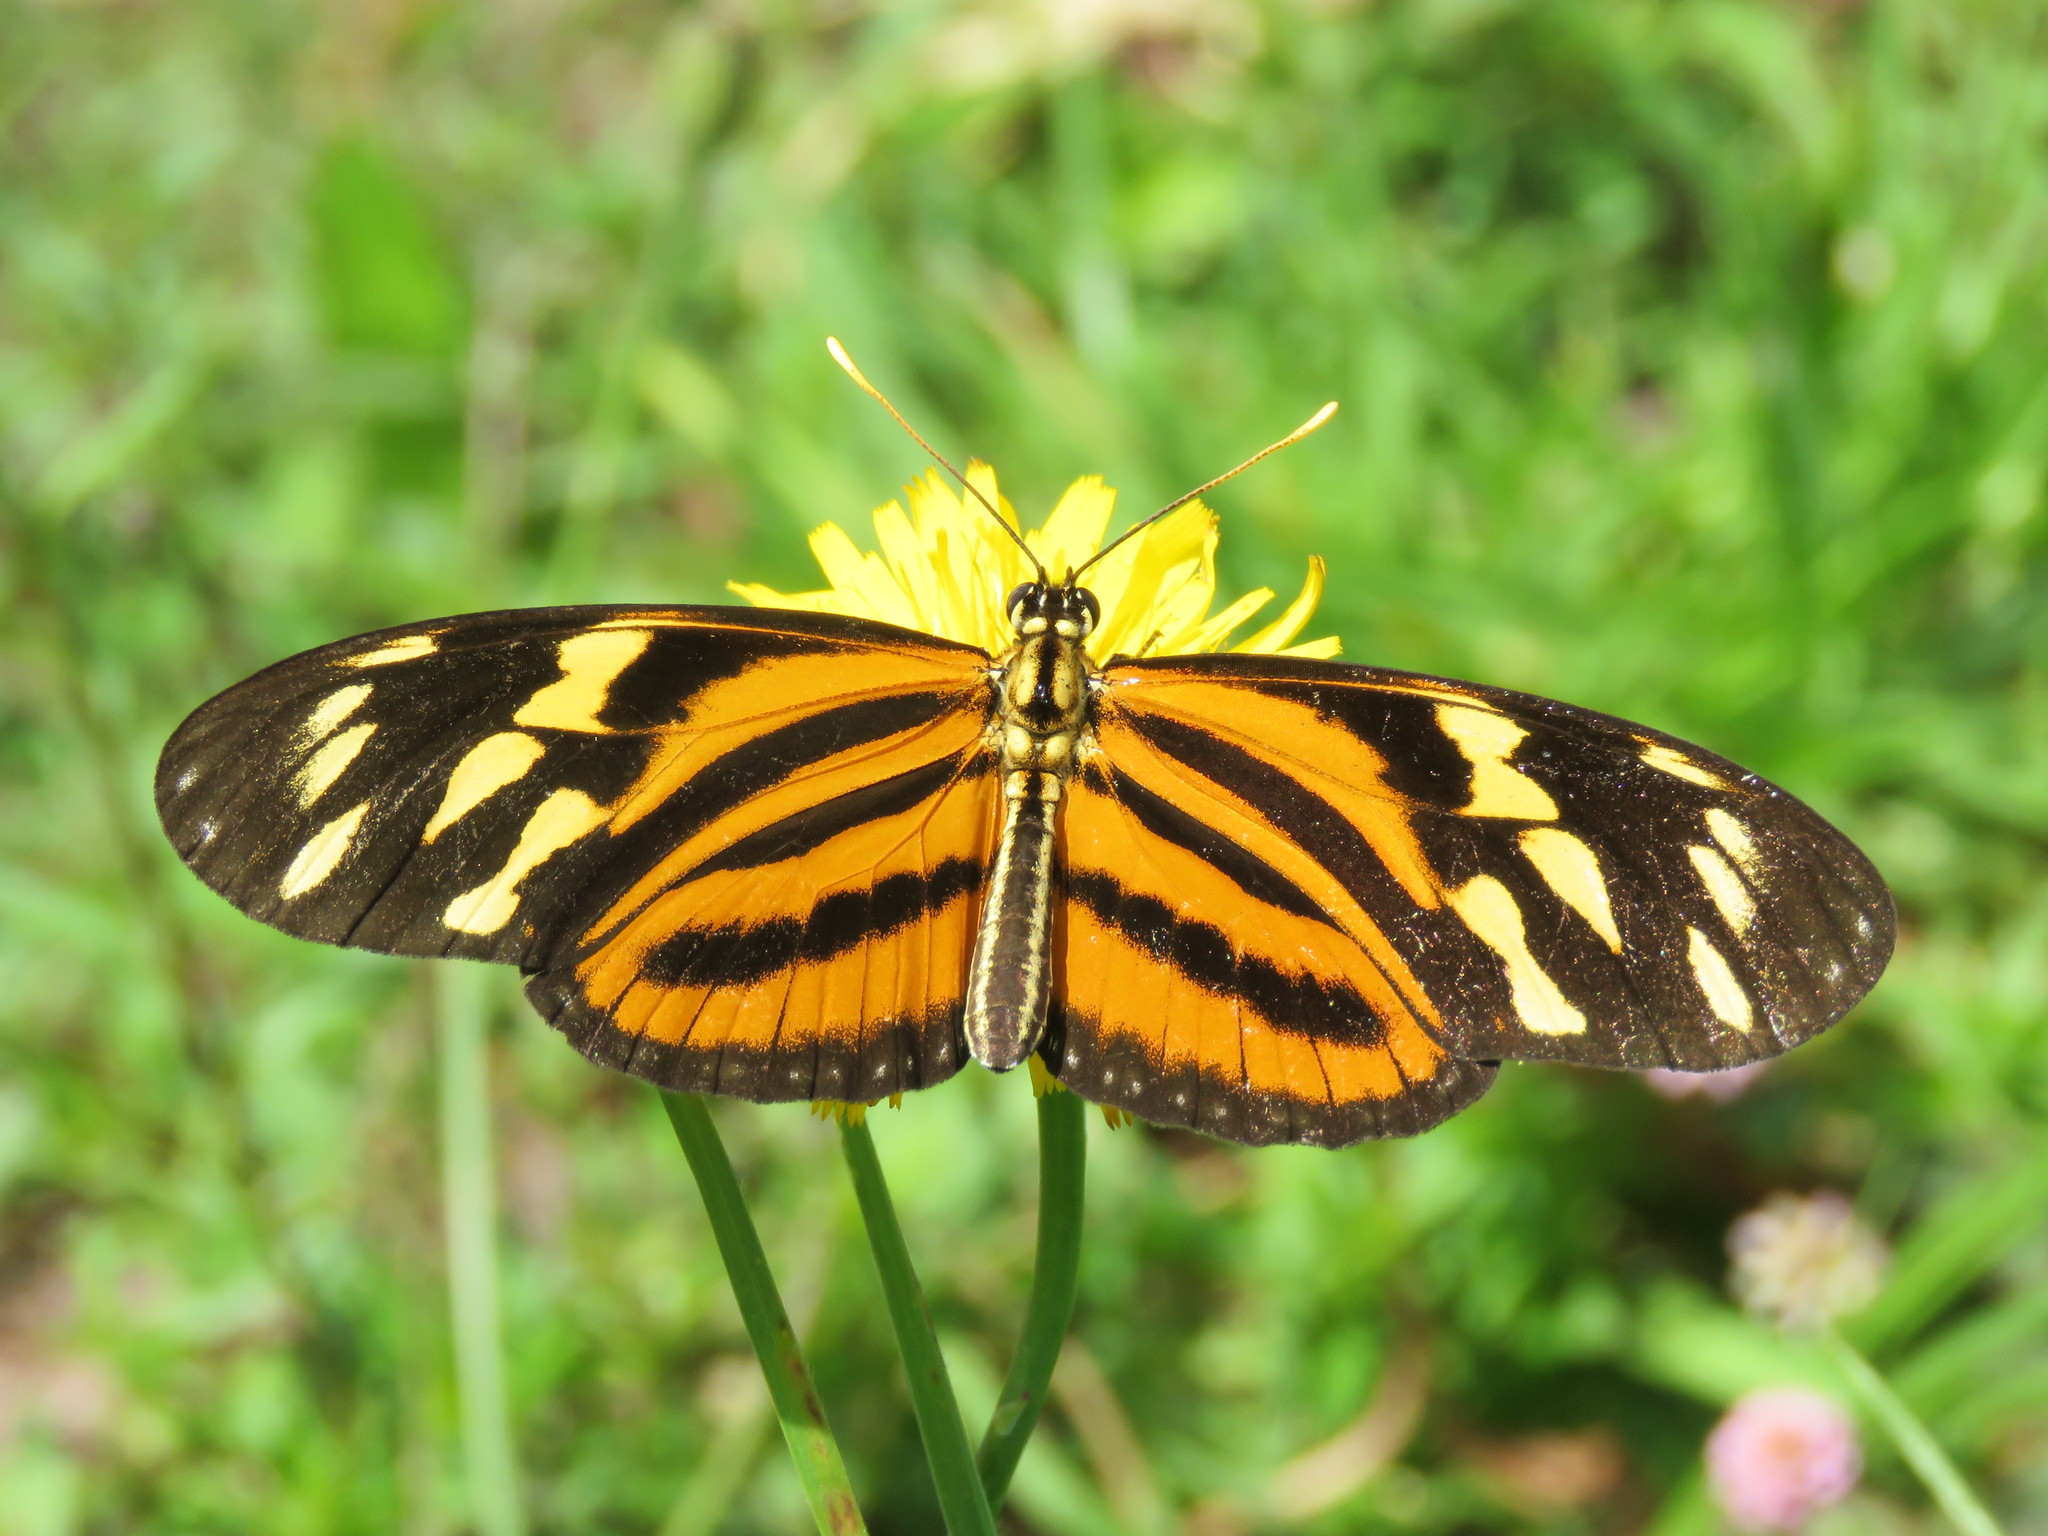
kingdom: Animalia
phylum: Arthropoda
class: Insecta
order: Lepidoptera
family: Nymphalidae
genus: Eueides
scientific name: Eueides isabella
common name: Isabella's longwing
